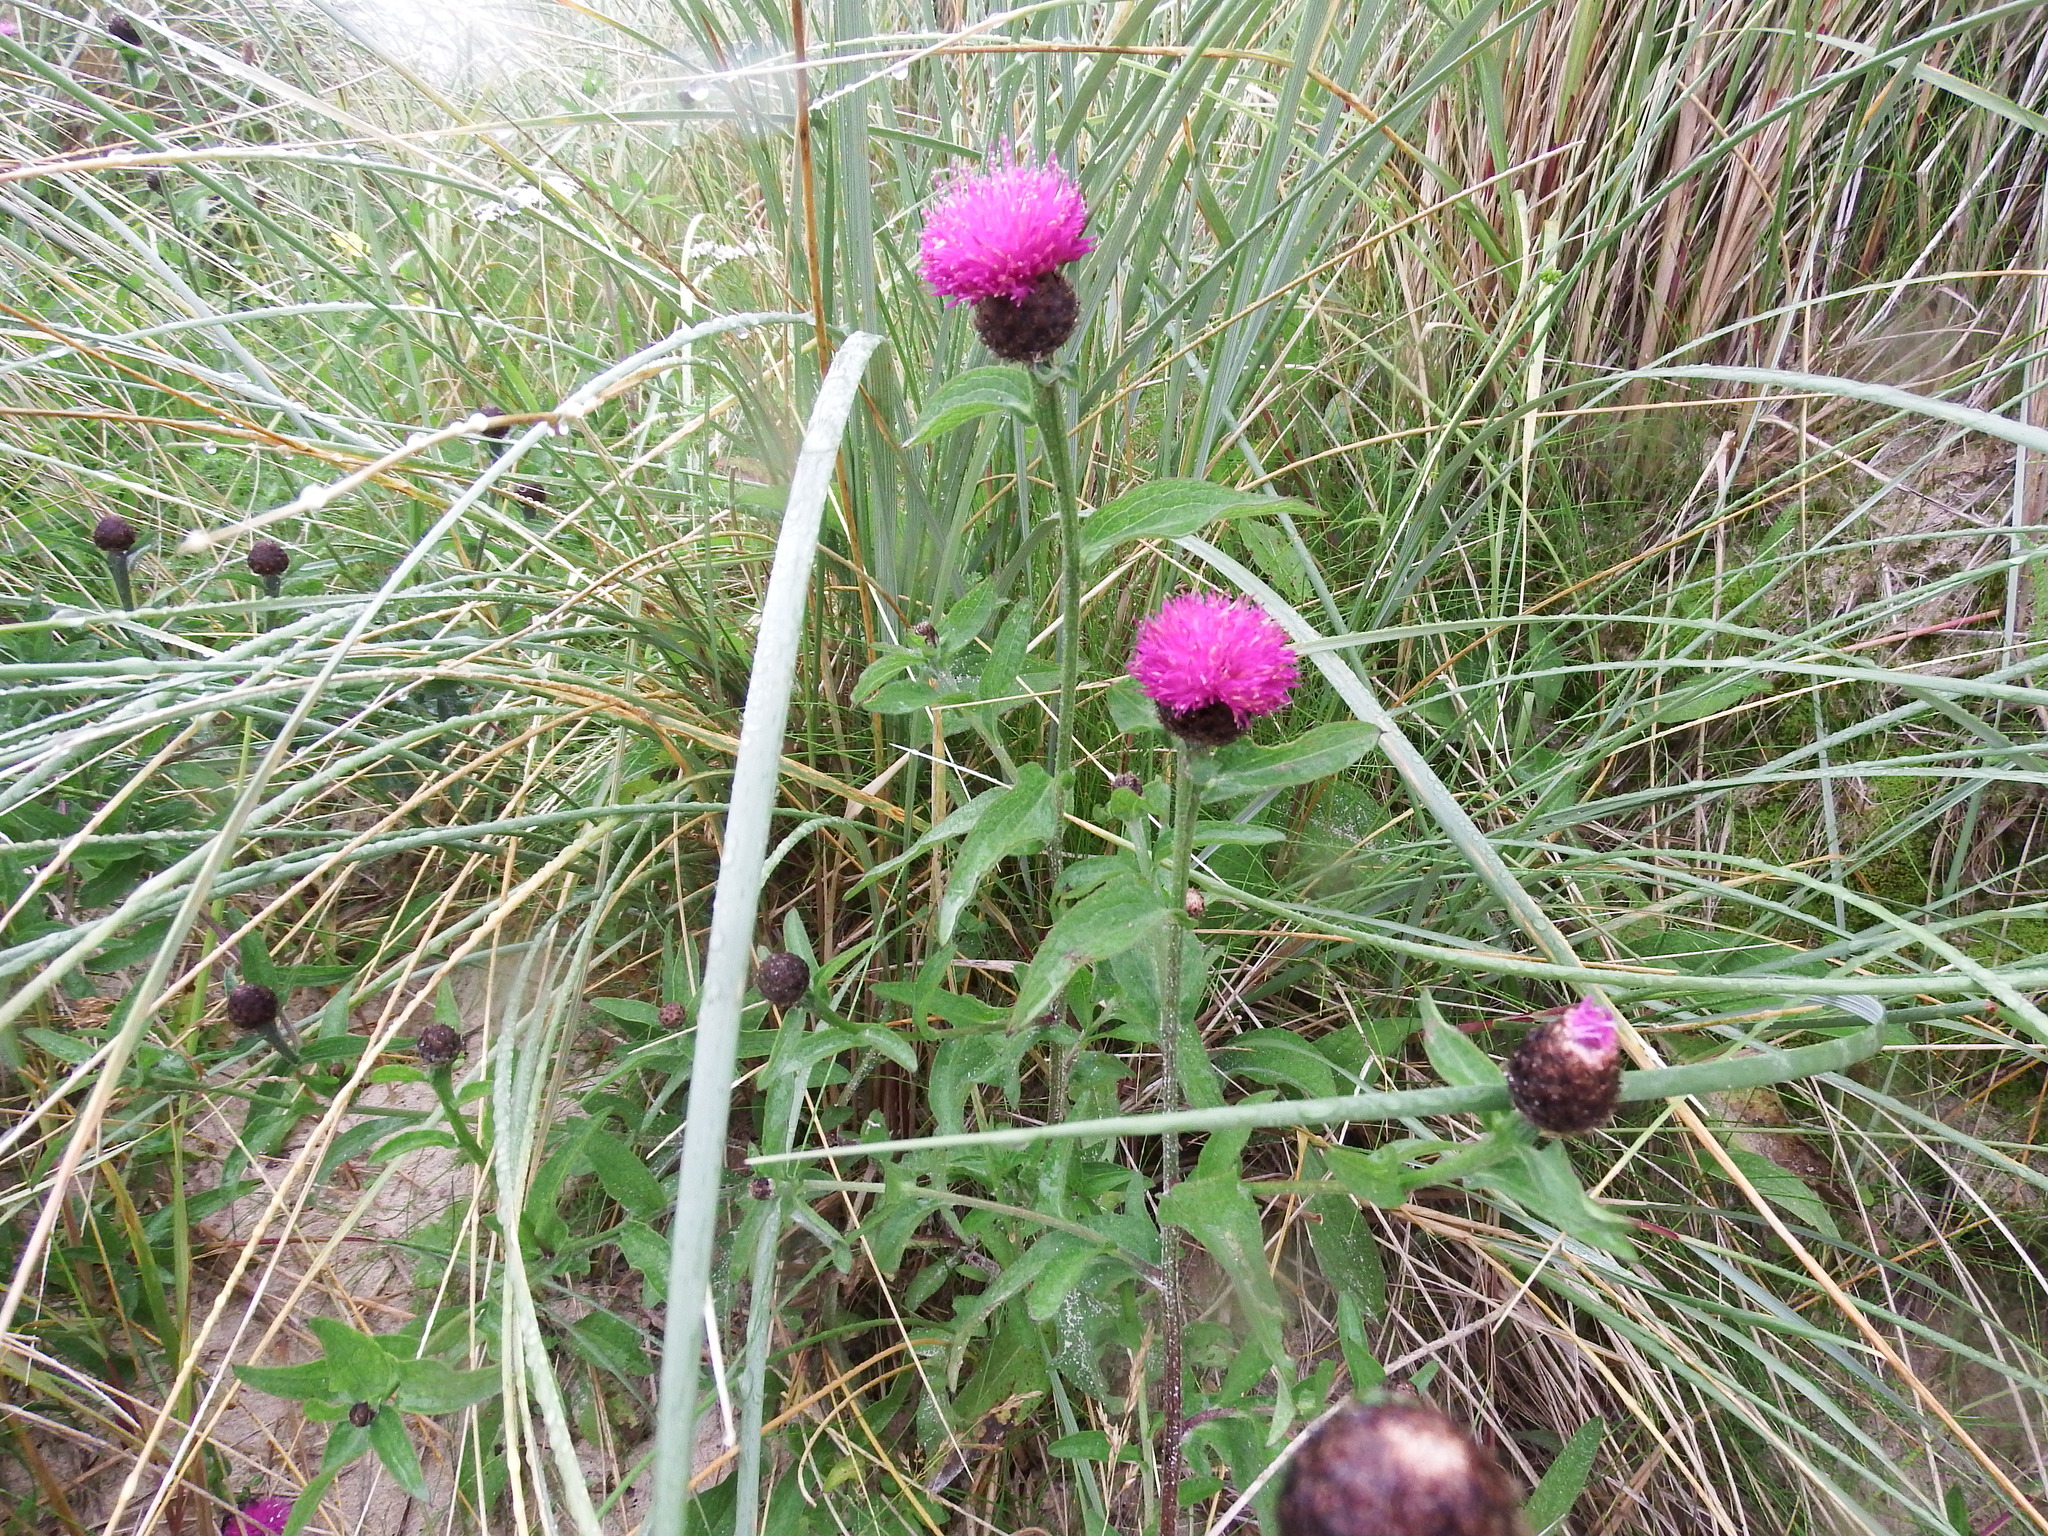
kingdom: Plantae
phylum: Tracheophyta
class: Magnoliopsida
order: Asterales
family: Asteraceae
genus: Centaurea
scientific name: Centaurea nigra
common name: Lesser knapweed
